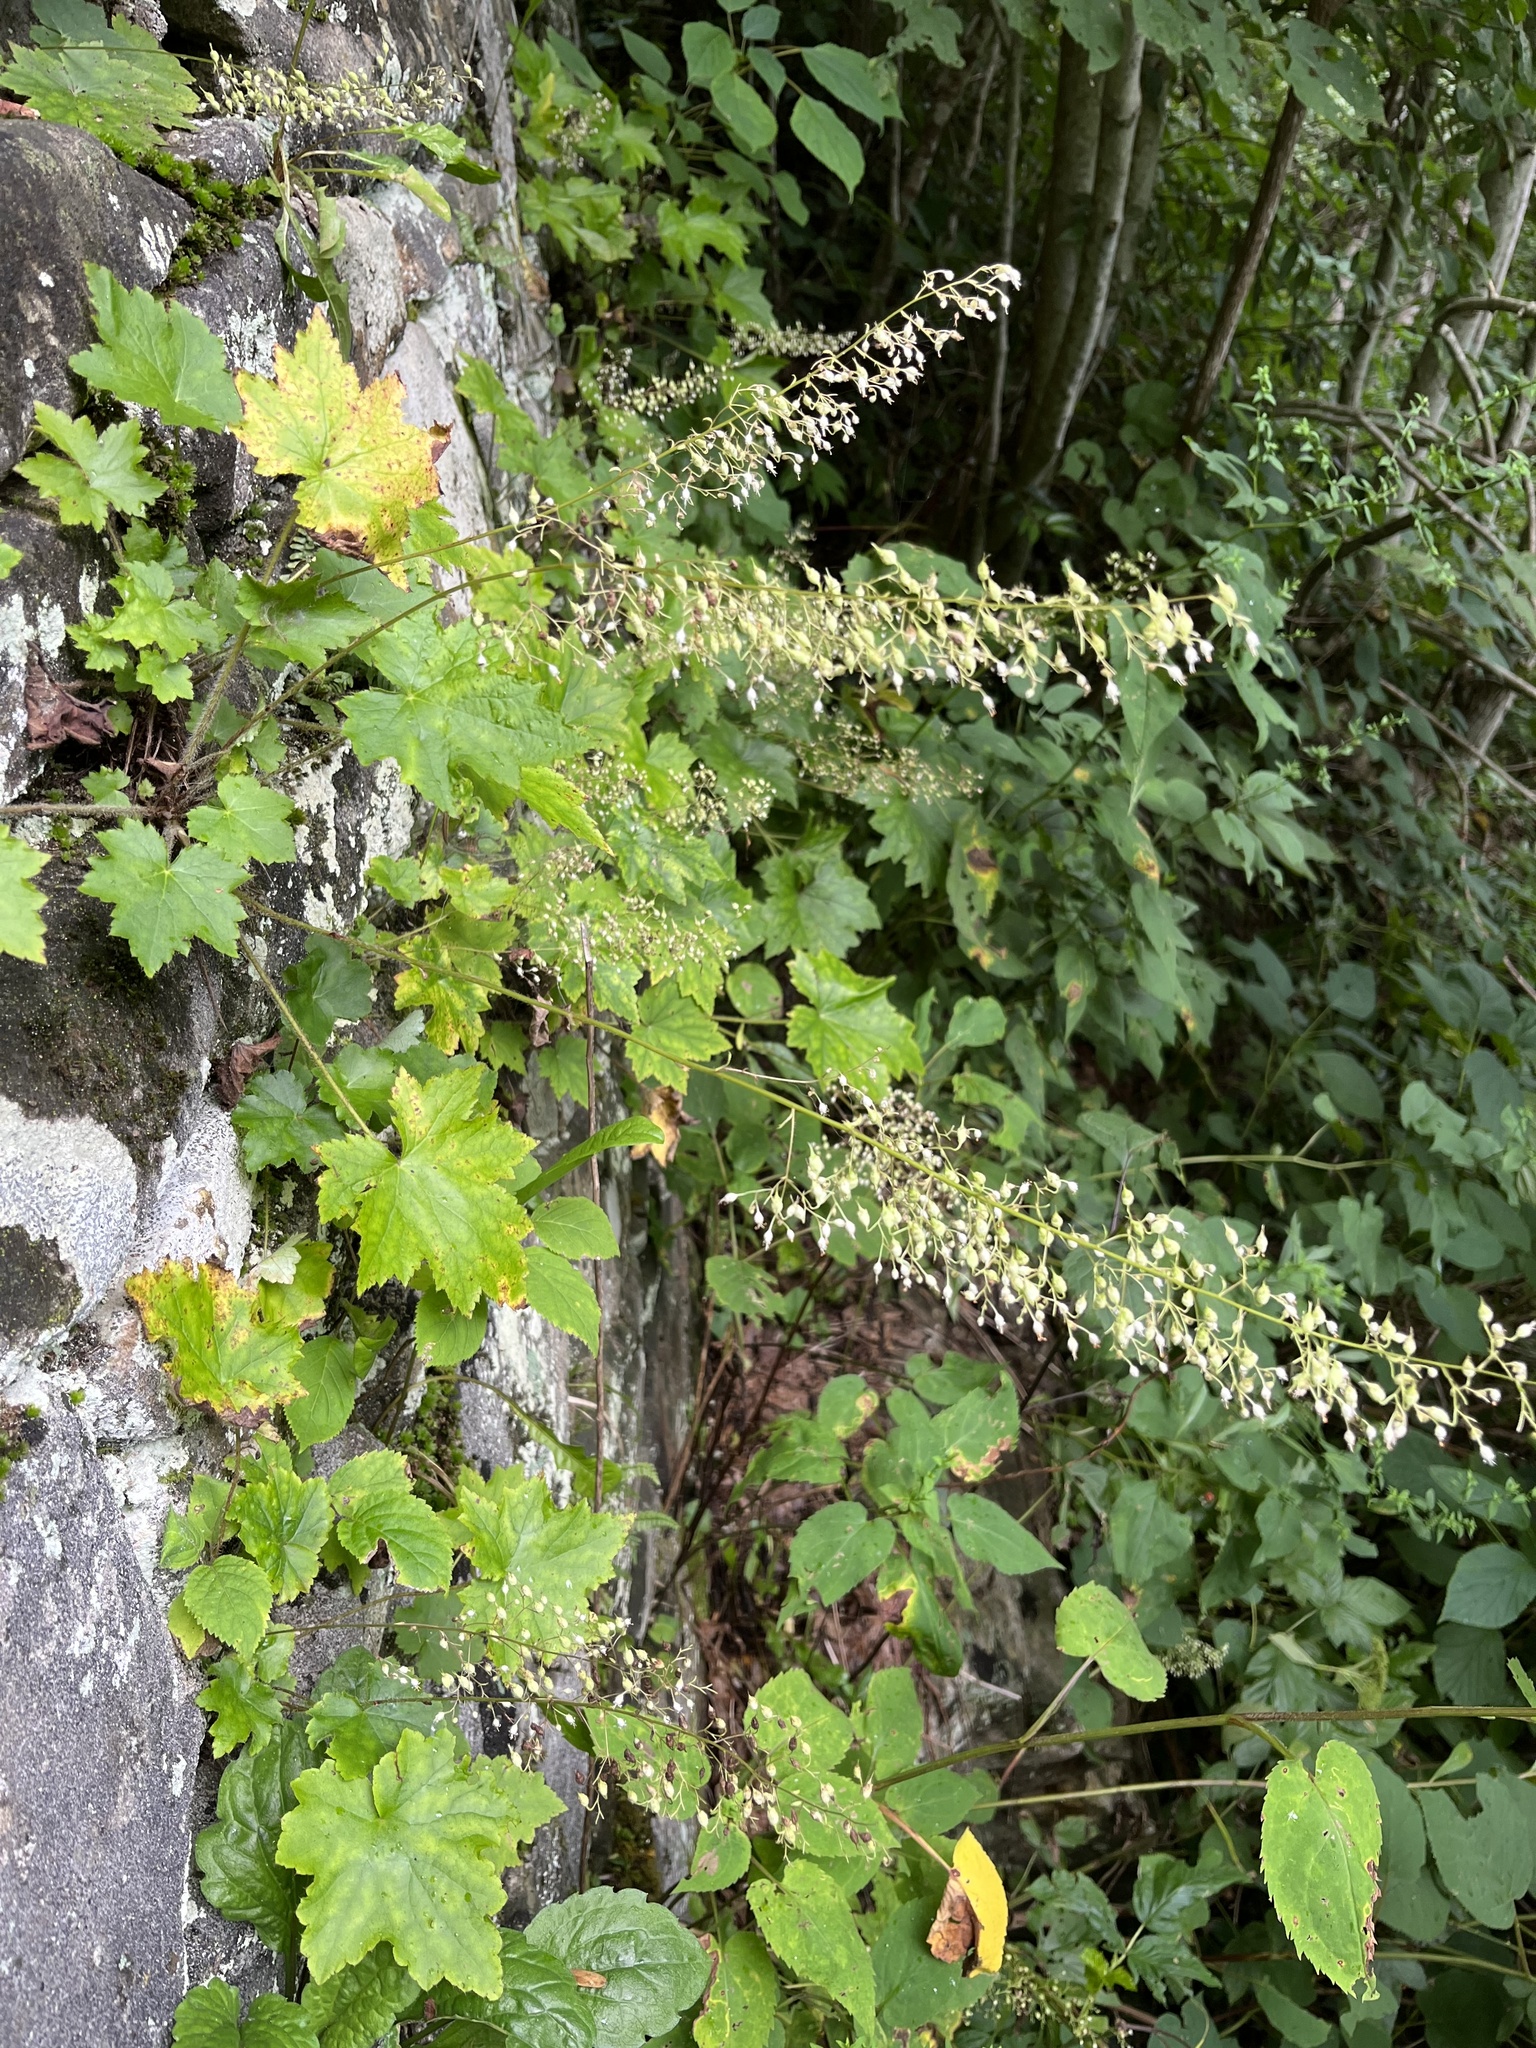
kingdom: Plantae
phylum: Tracheophyta
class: Magnoliopsida
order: Saxifragales
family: Saxifragaceae
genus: Heuchera
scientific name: Heuchera villosa
